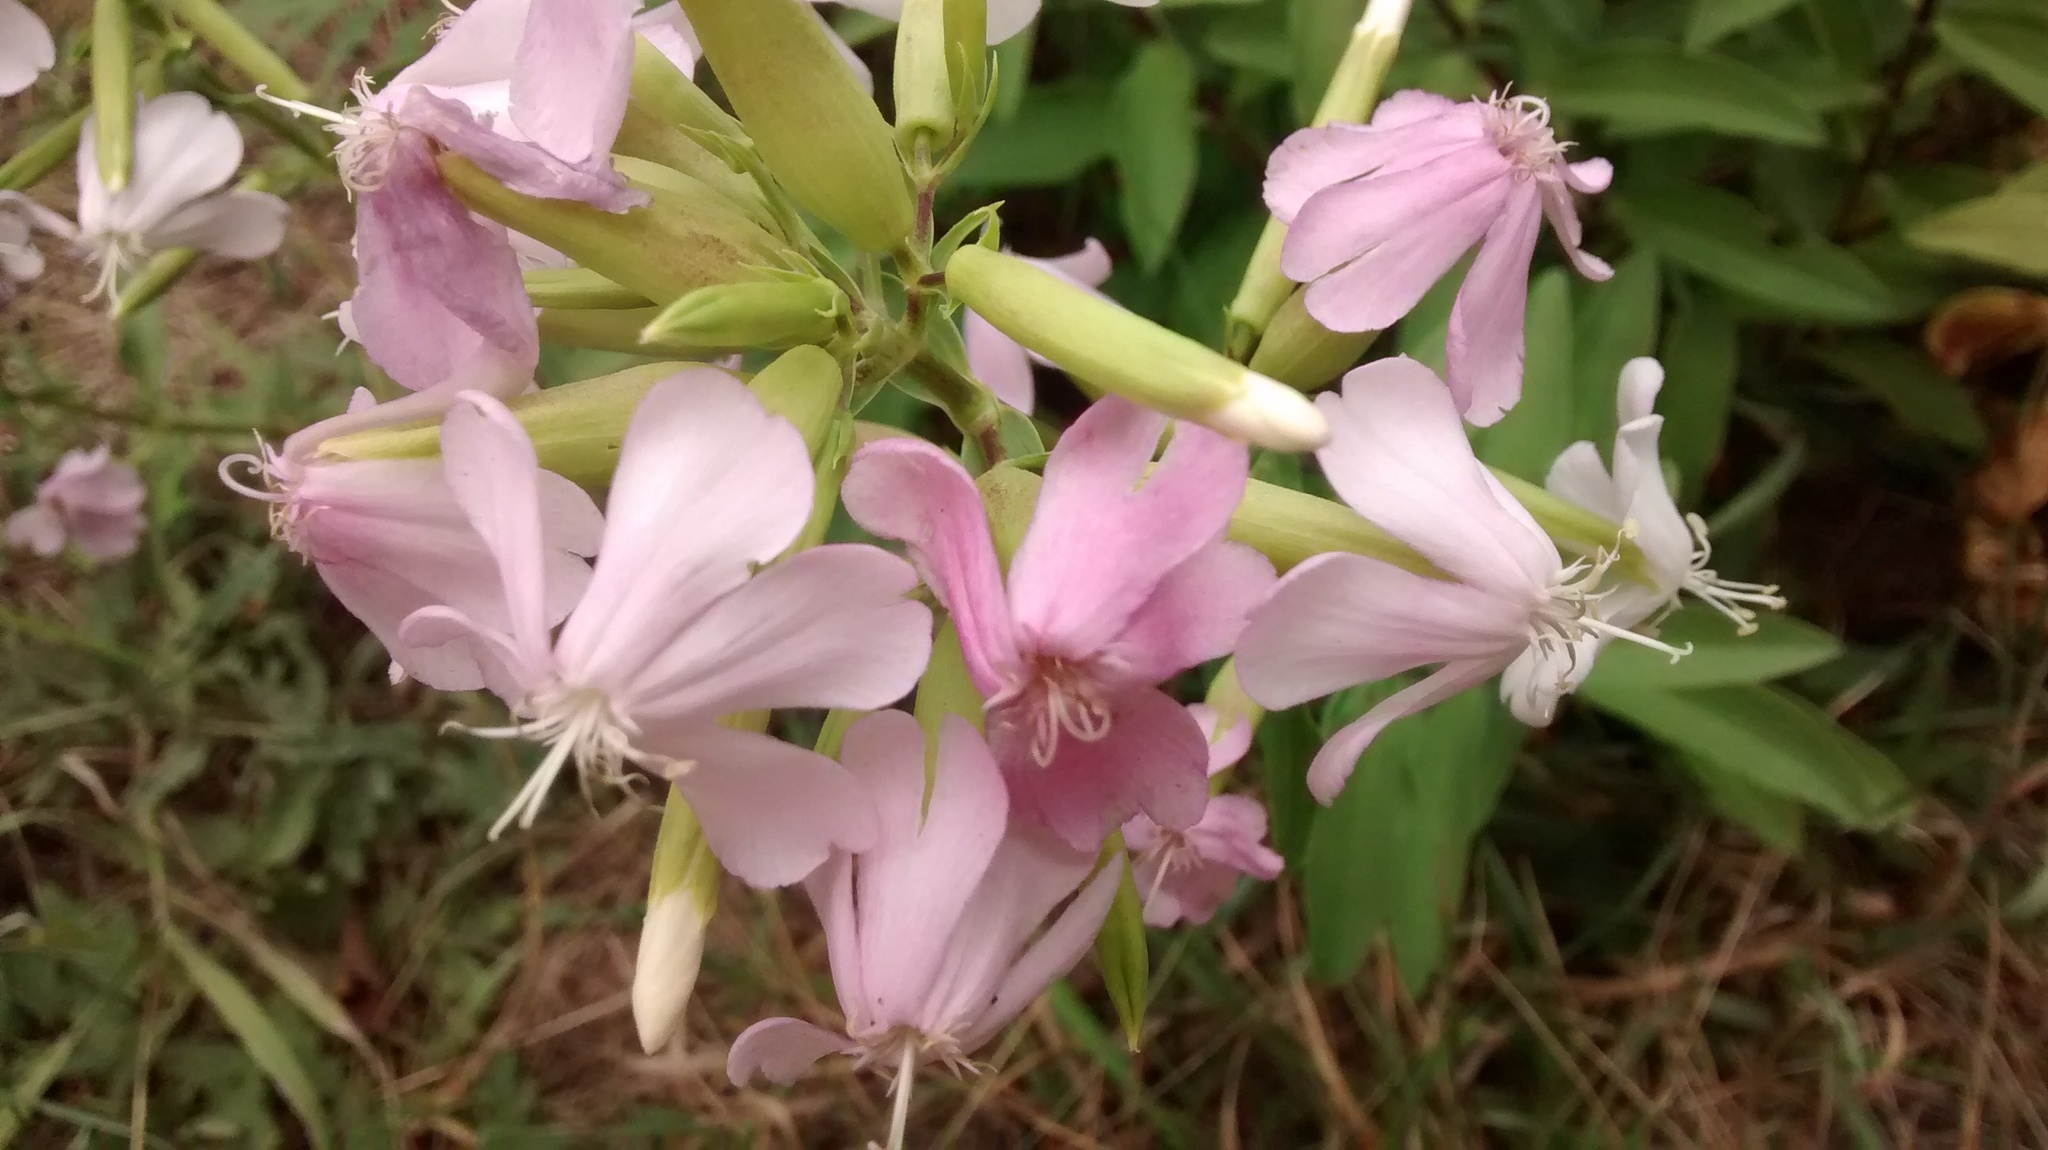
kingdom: Plantae
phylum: Tracheophyta
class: Magnoliopsida
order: Caryophyllales
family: Caryophyllaceae
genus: Saponaria
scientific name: Saponaria officinalis
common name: Soapwort
